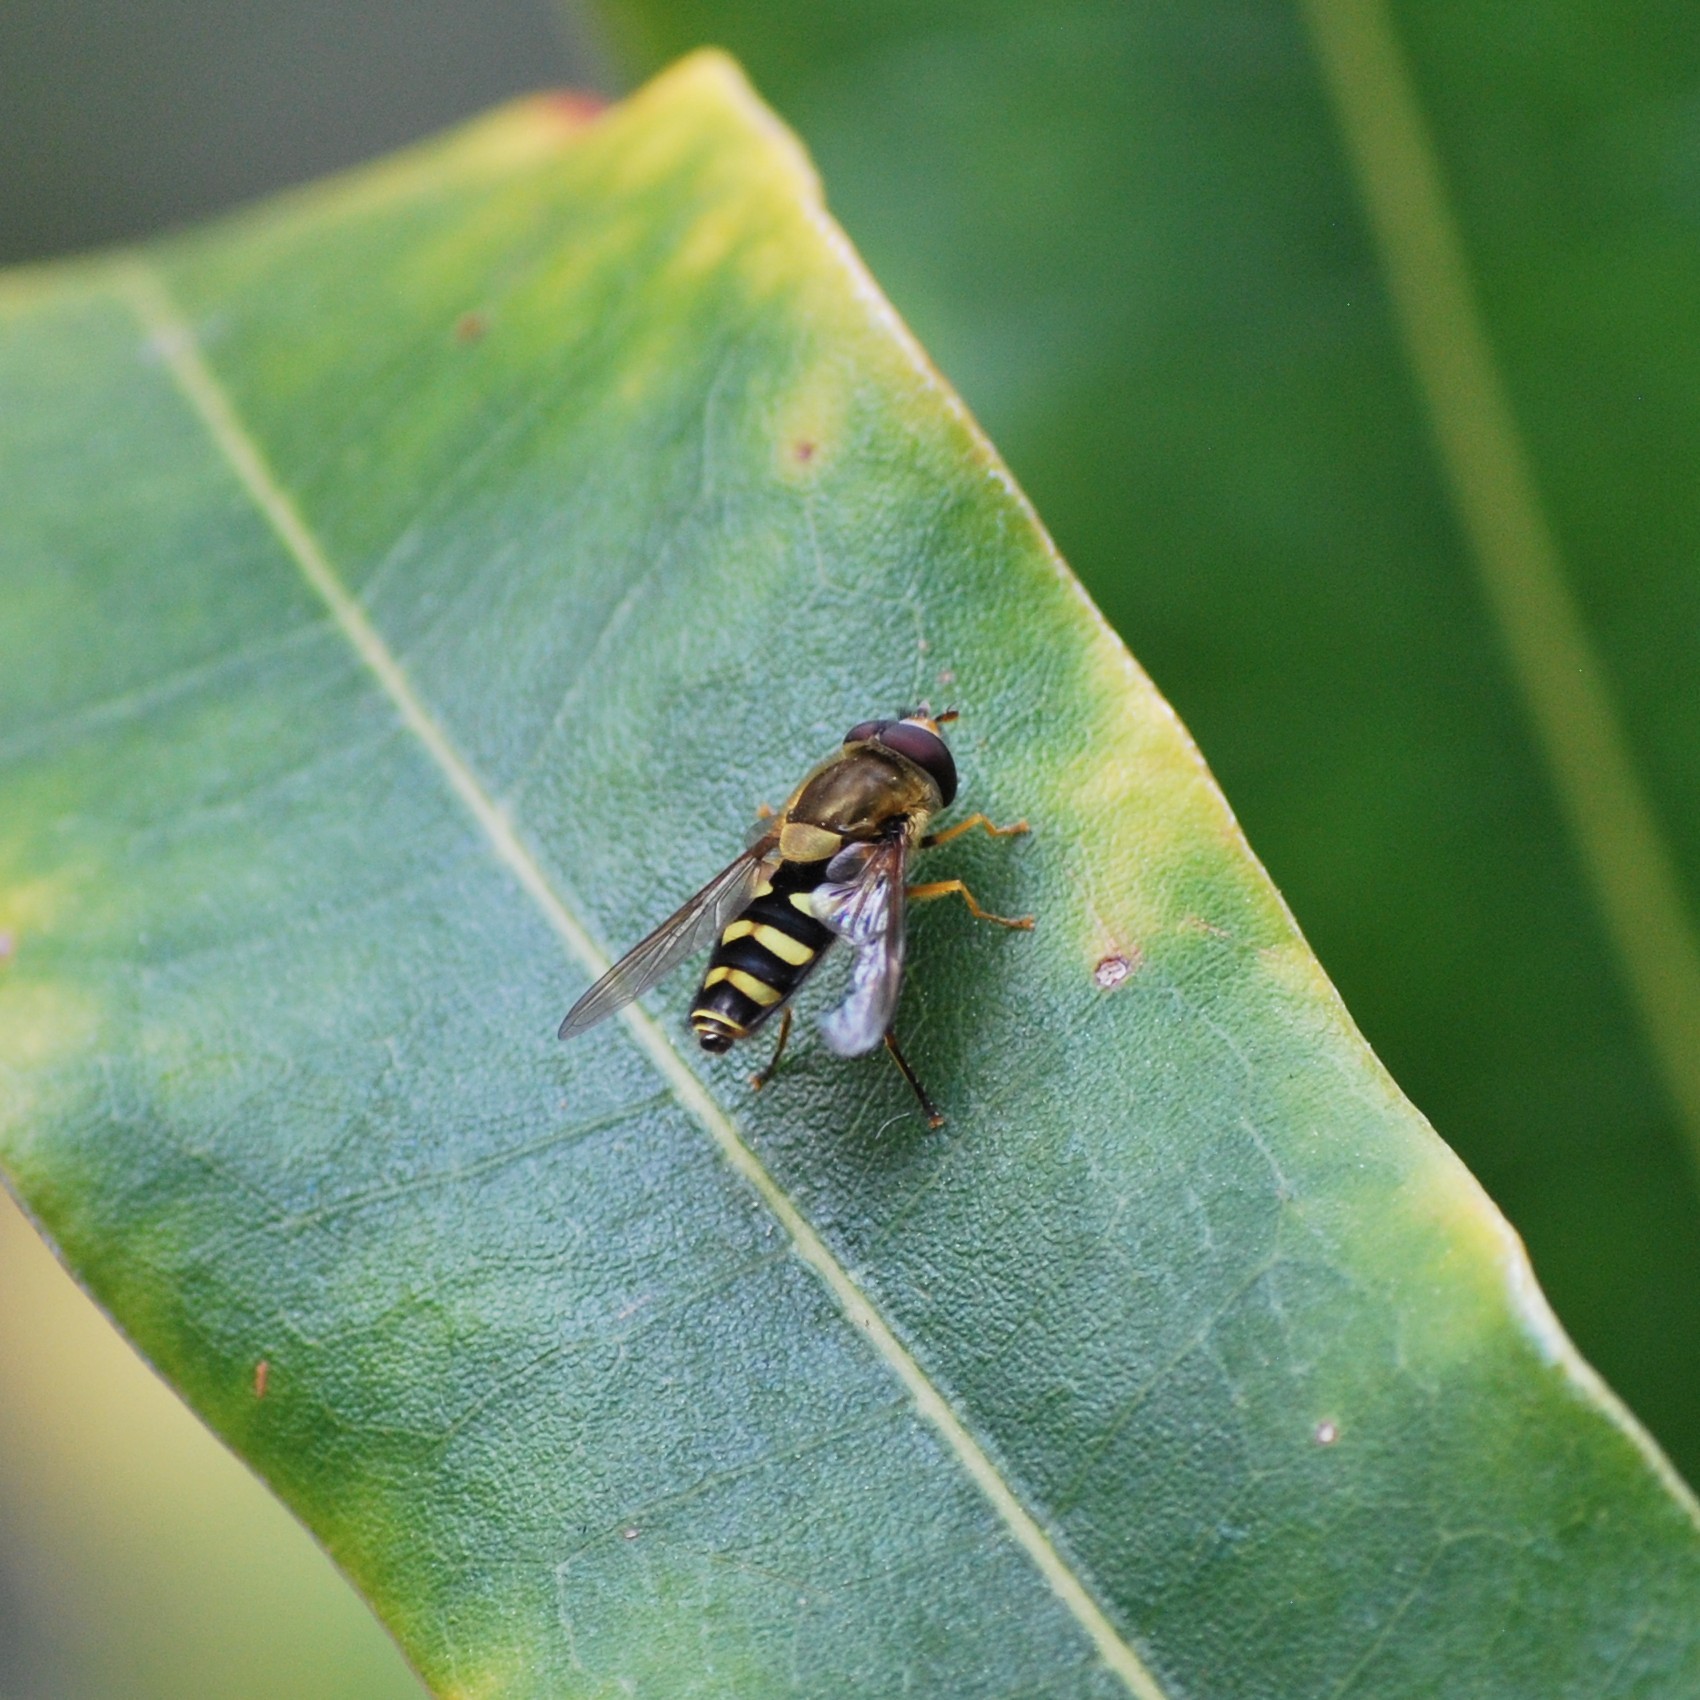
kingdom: Animalia
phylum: Arthropoda
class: Insecta
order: Diptera
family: Syrphidae
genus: Syrphus
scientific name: Syrphus opinator
